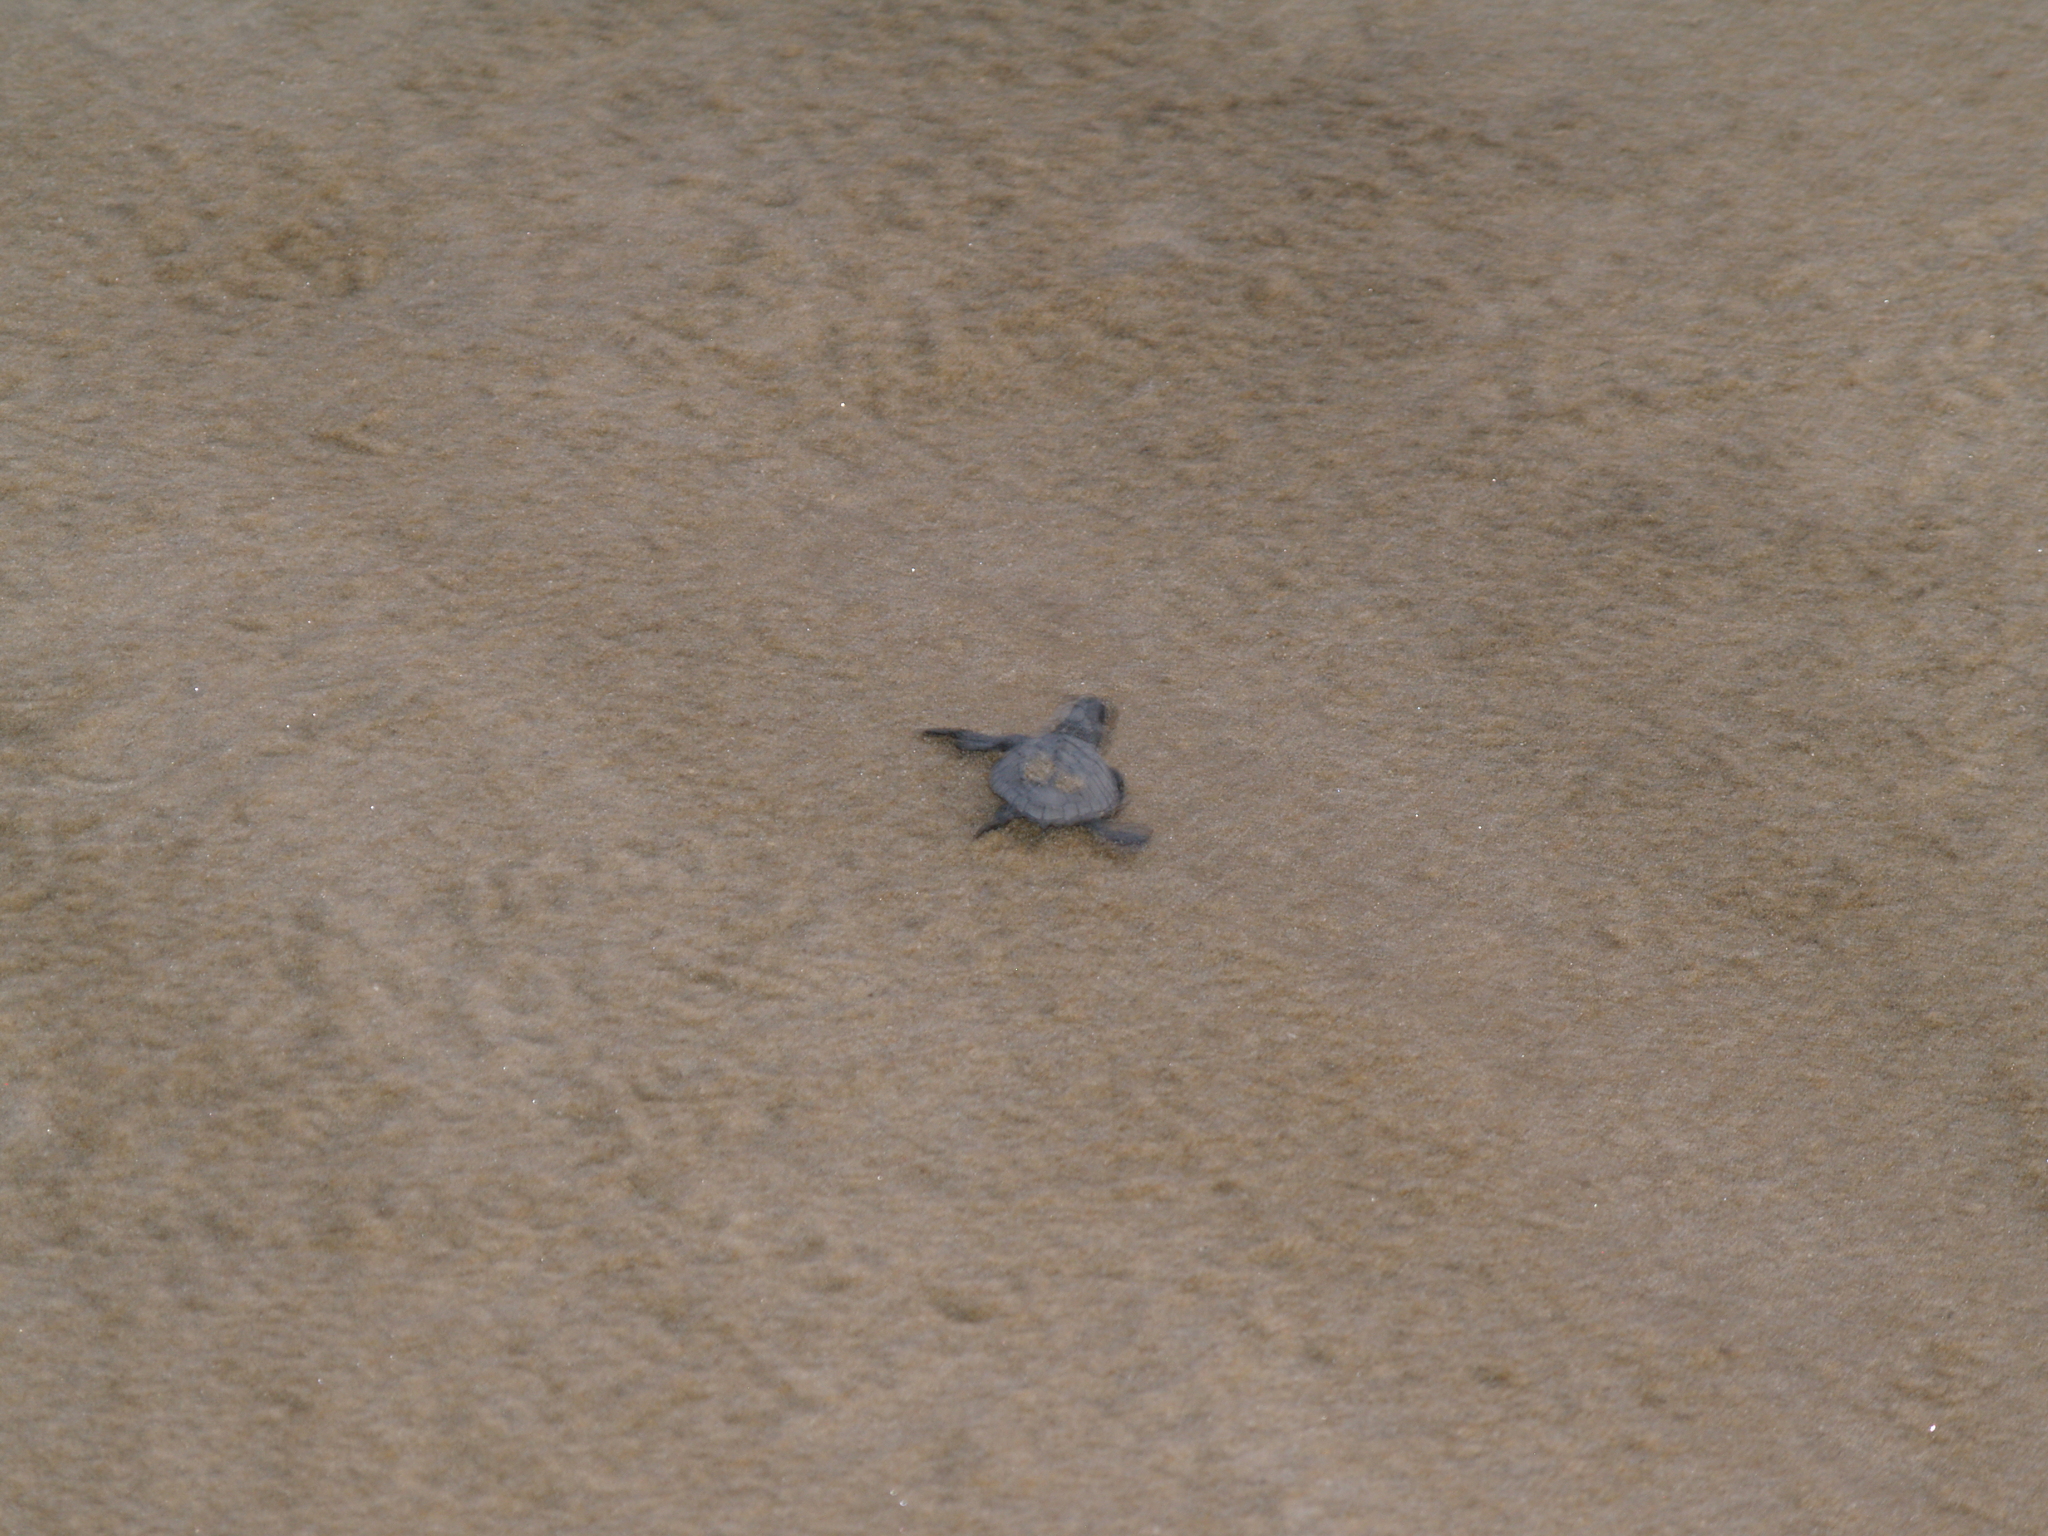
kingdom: Animalia
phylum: Chordata
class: Testudines
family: Cheloniidae
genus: Lepidochelys
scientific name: Lepidochelys olivacea
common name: Olive ridley
